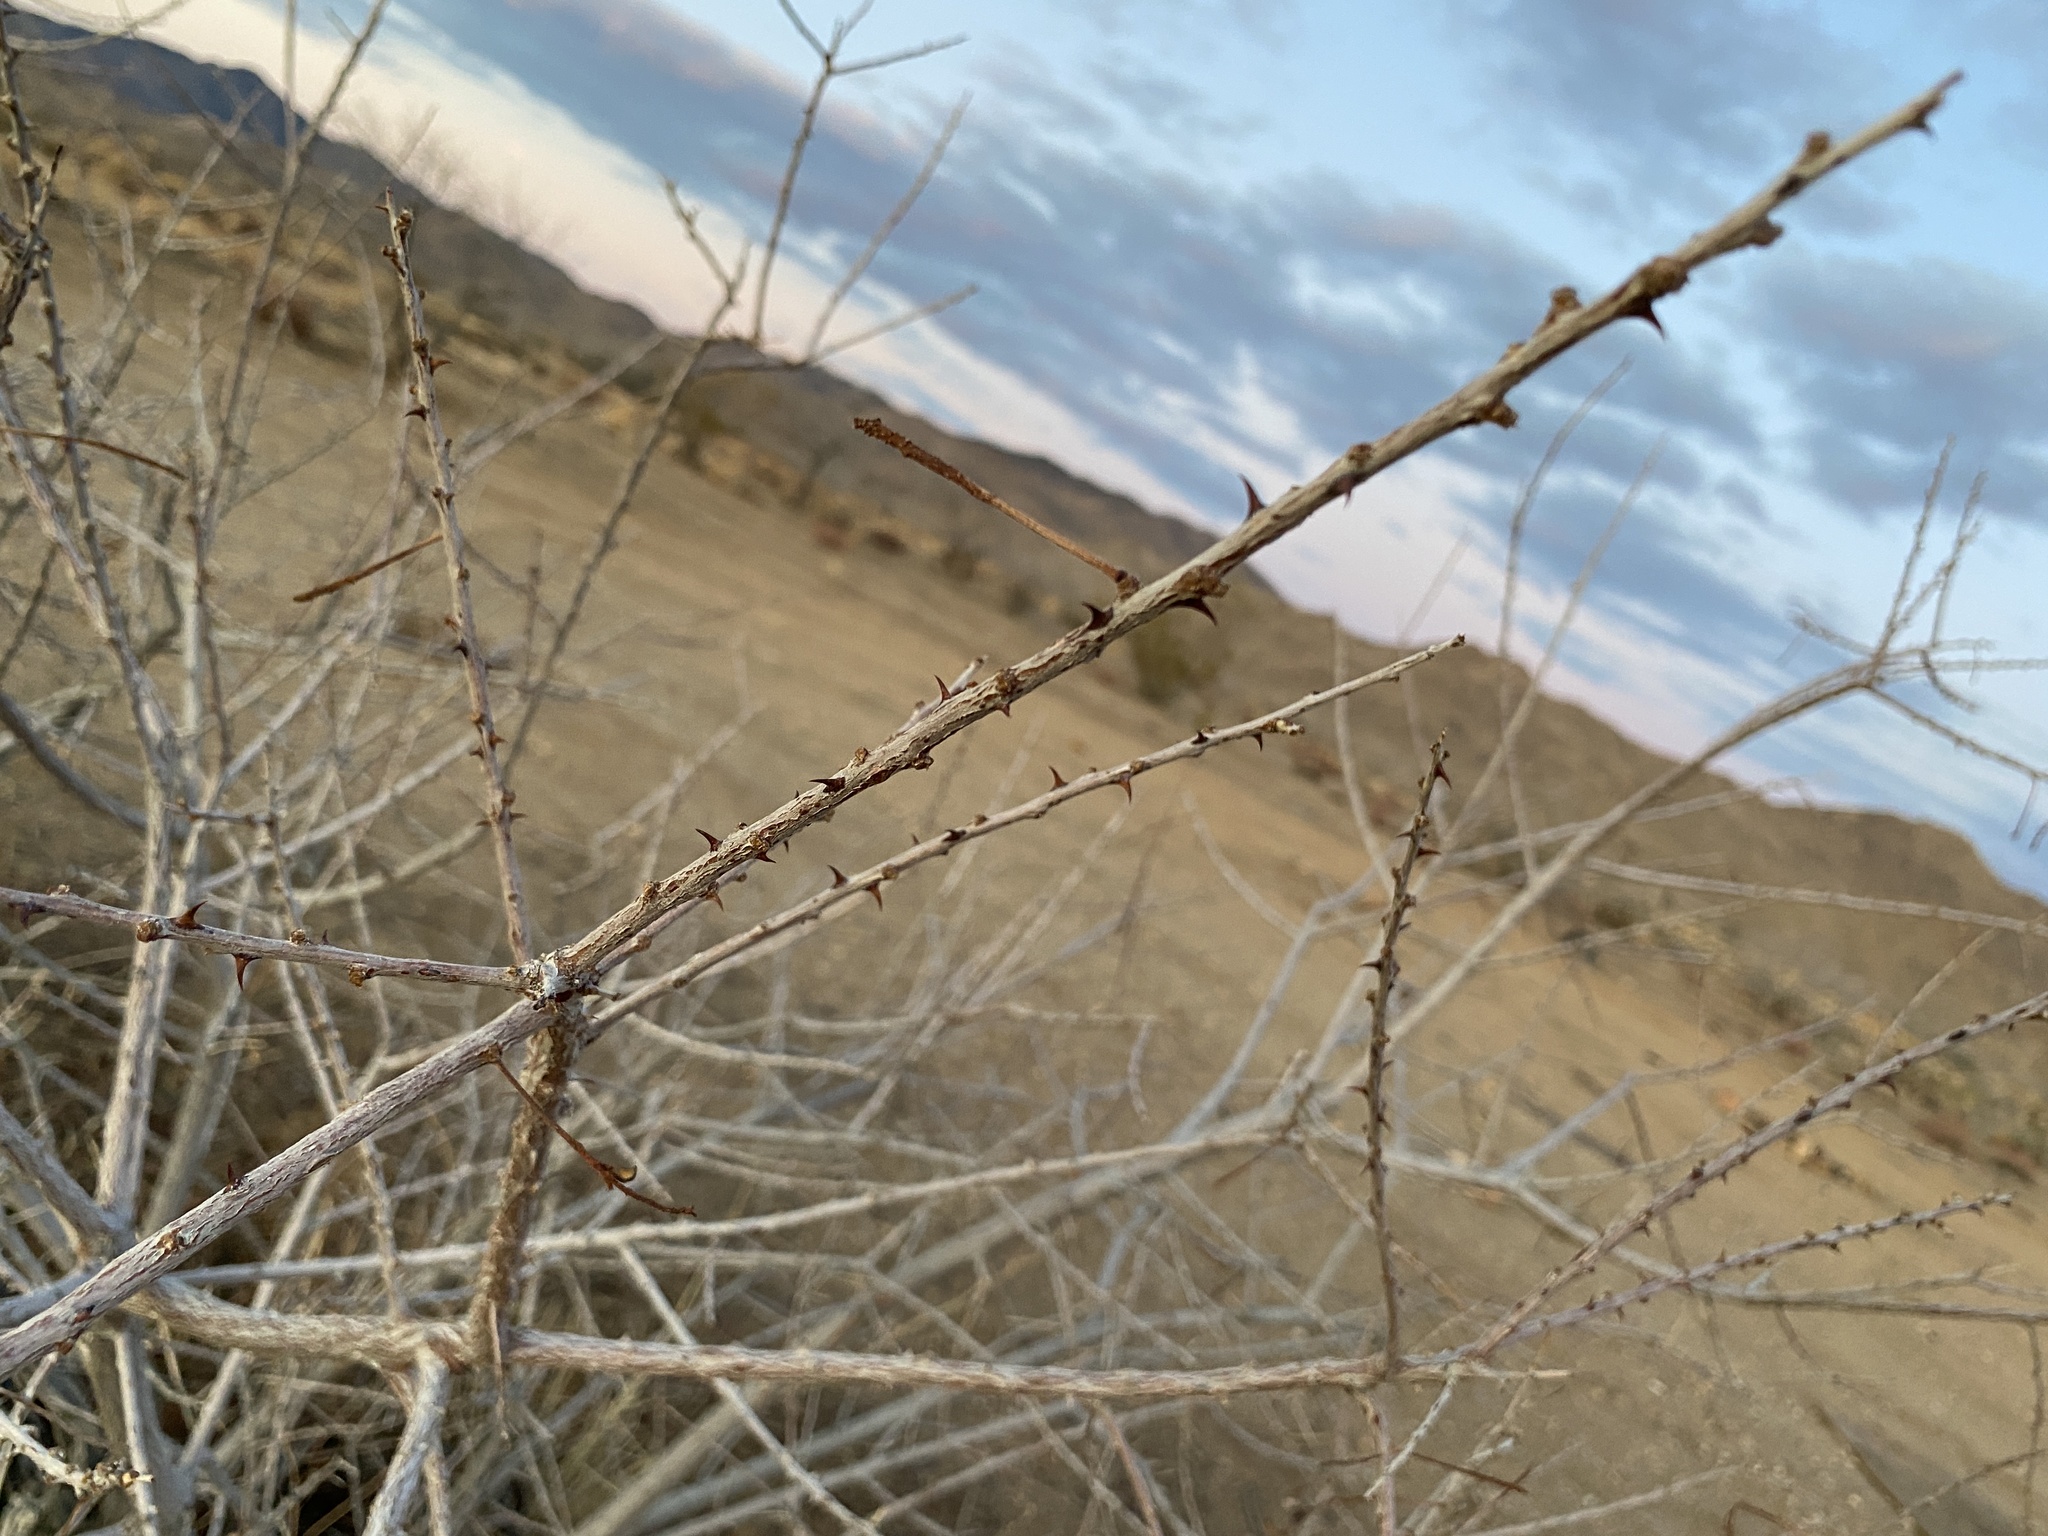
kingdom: Plantae
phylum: Tracheophyta
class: Magnoliopsida
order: Fabales
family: Fabaceae
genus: Senegalia
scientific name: Senegalia greggii
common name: Texas-mimosa
